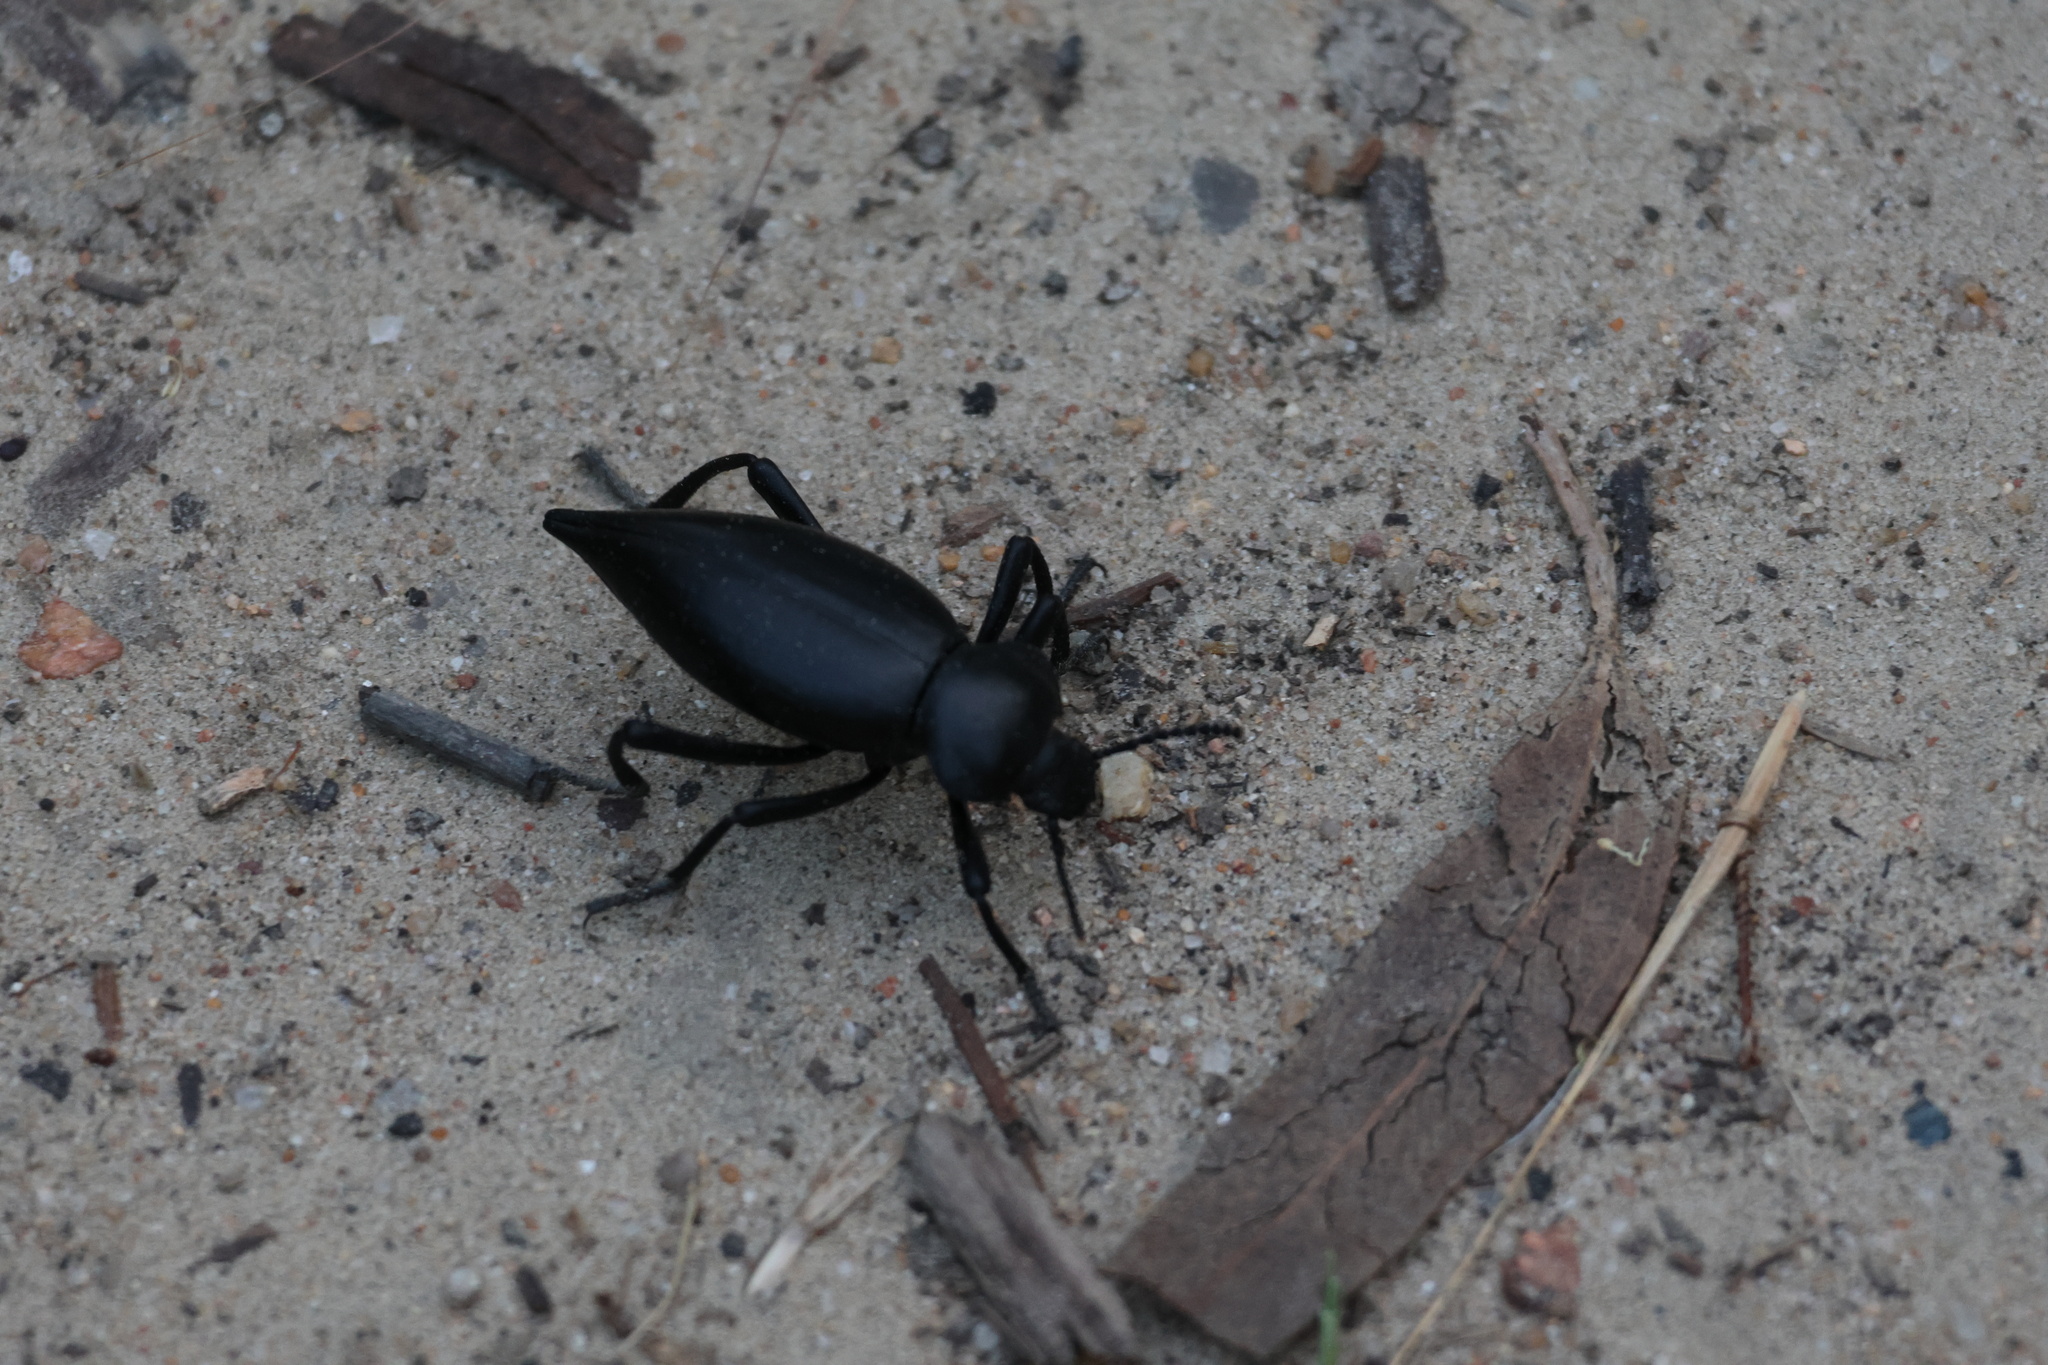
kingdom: Animalia
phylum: Arthropoda
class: Insecta
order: Coleoptera
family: Tenebrionidae
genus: Eleodes
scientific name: Eleodes acuticauda
